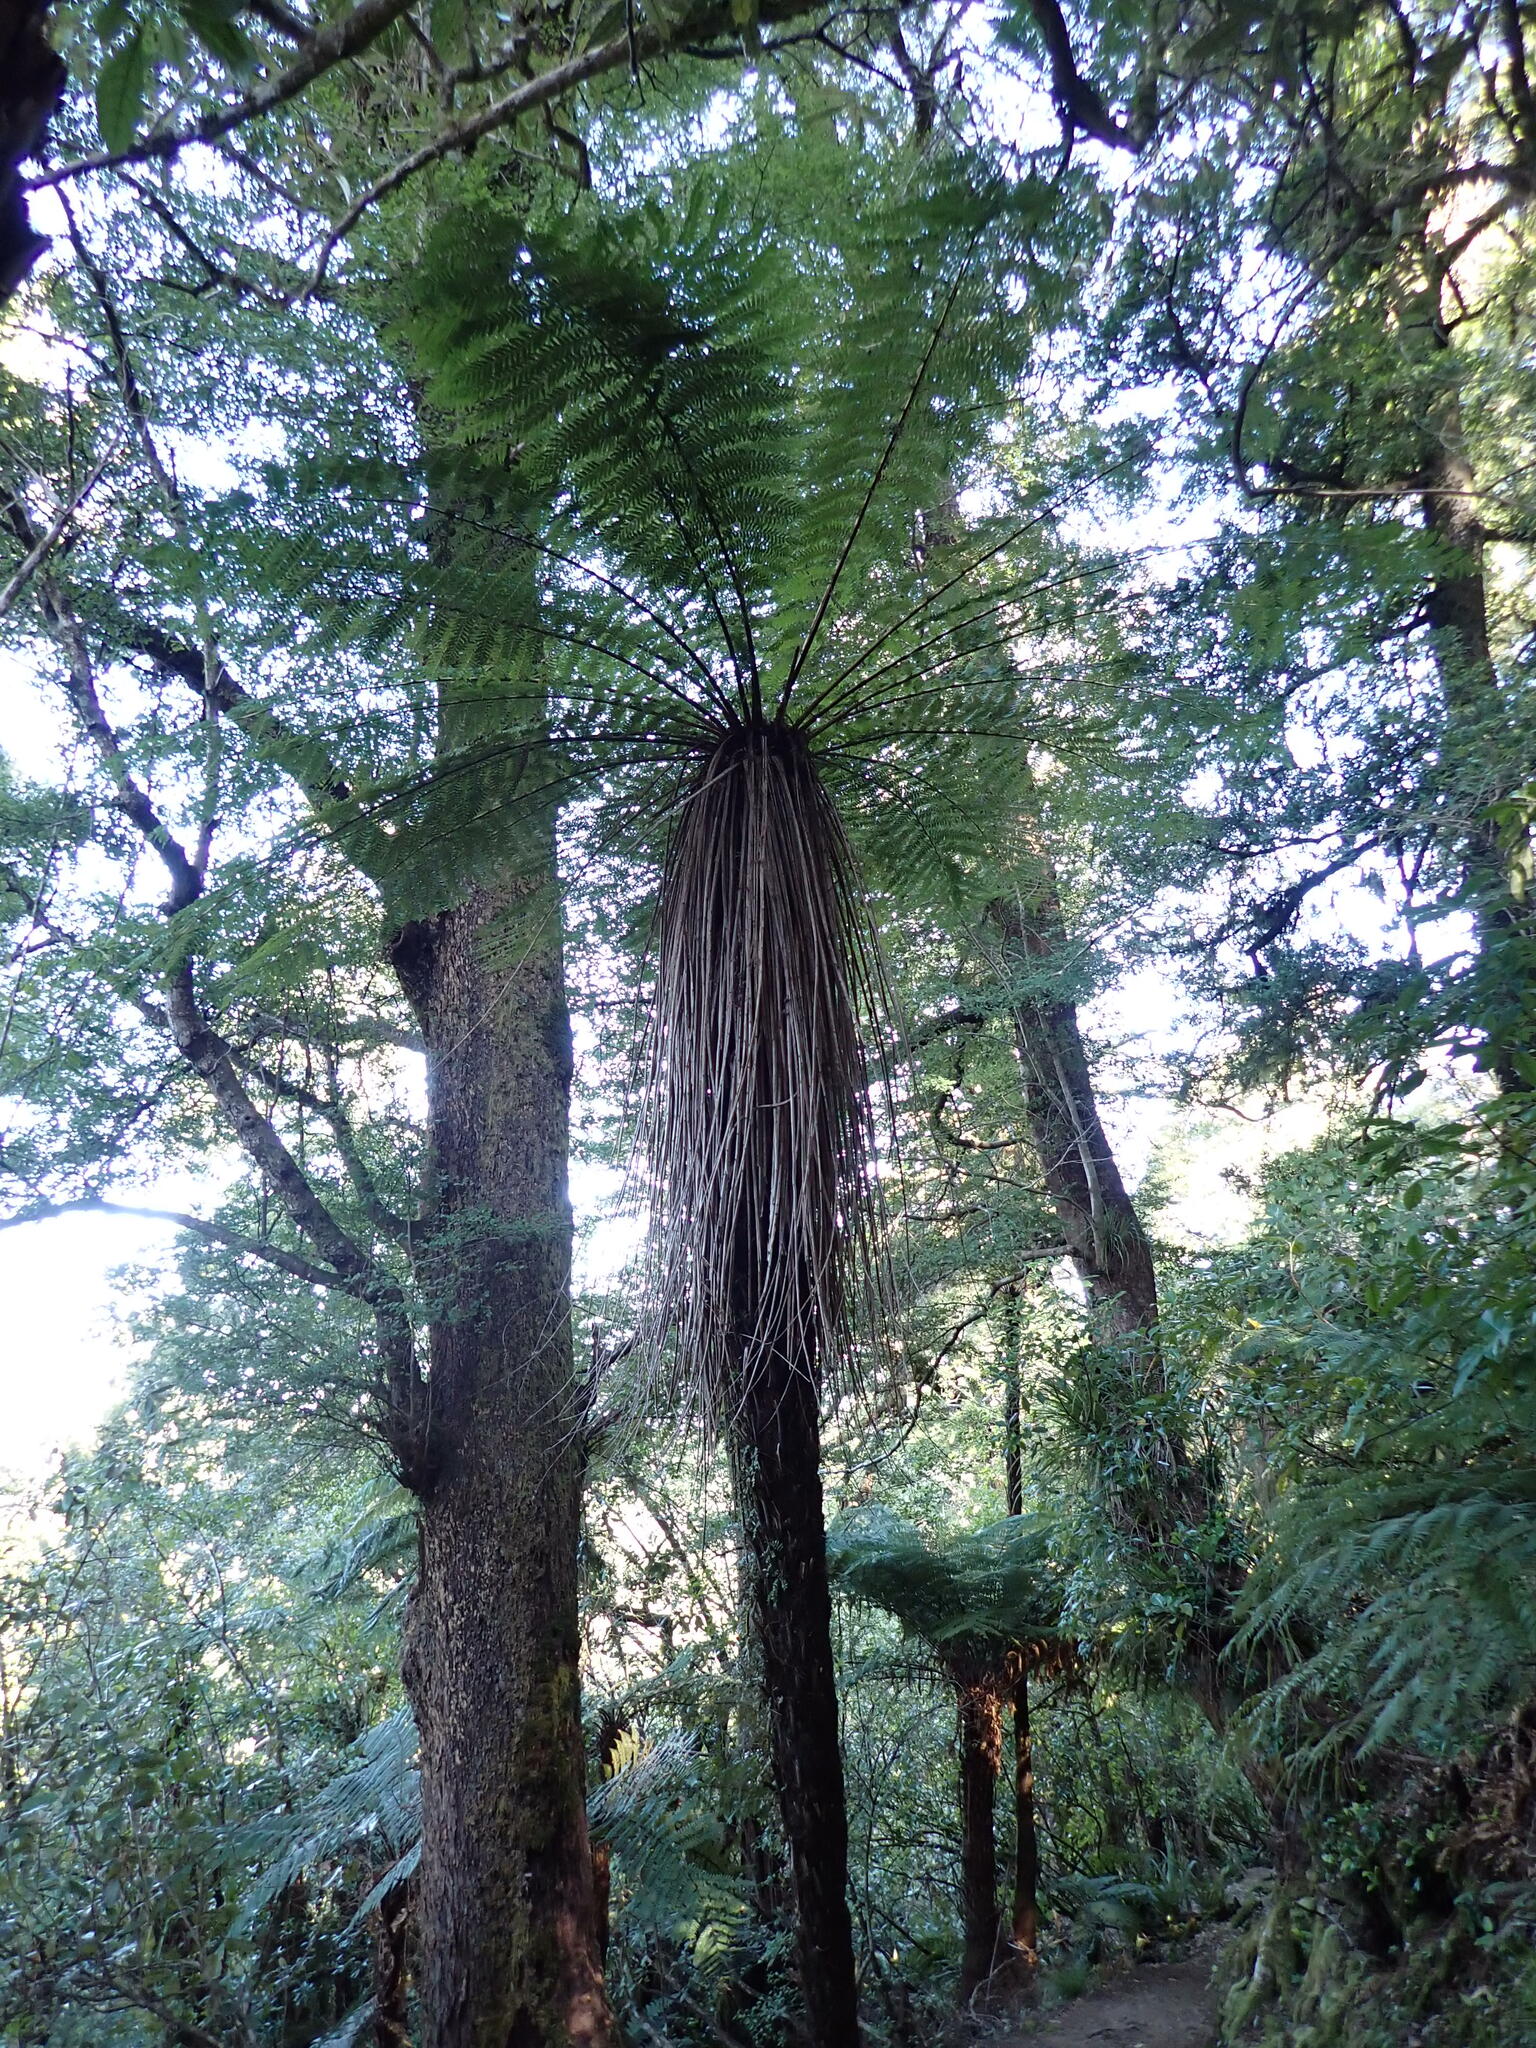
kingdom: Plantae
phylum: Tracheophyta
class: Polypodiopsida
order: Cyatheales
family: Cyatheaceae
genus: Alsophila
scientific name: Alsophila smithii
